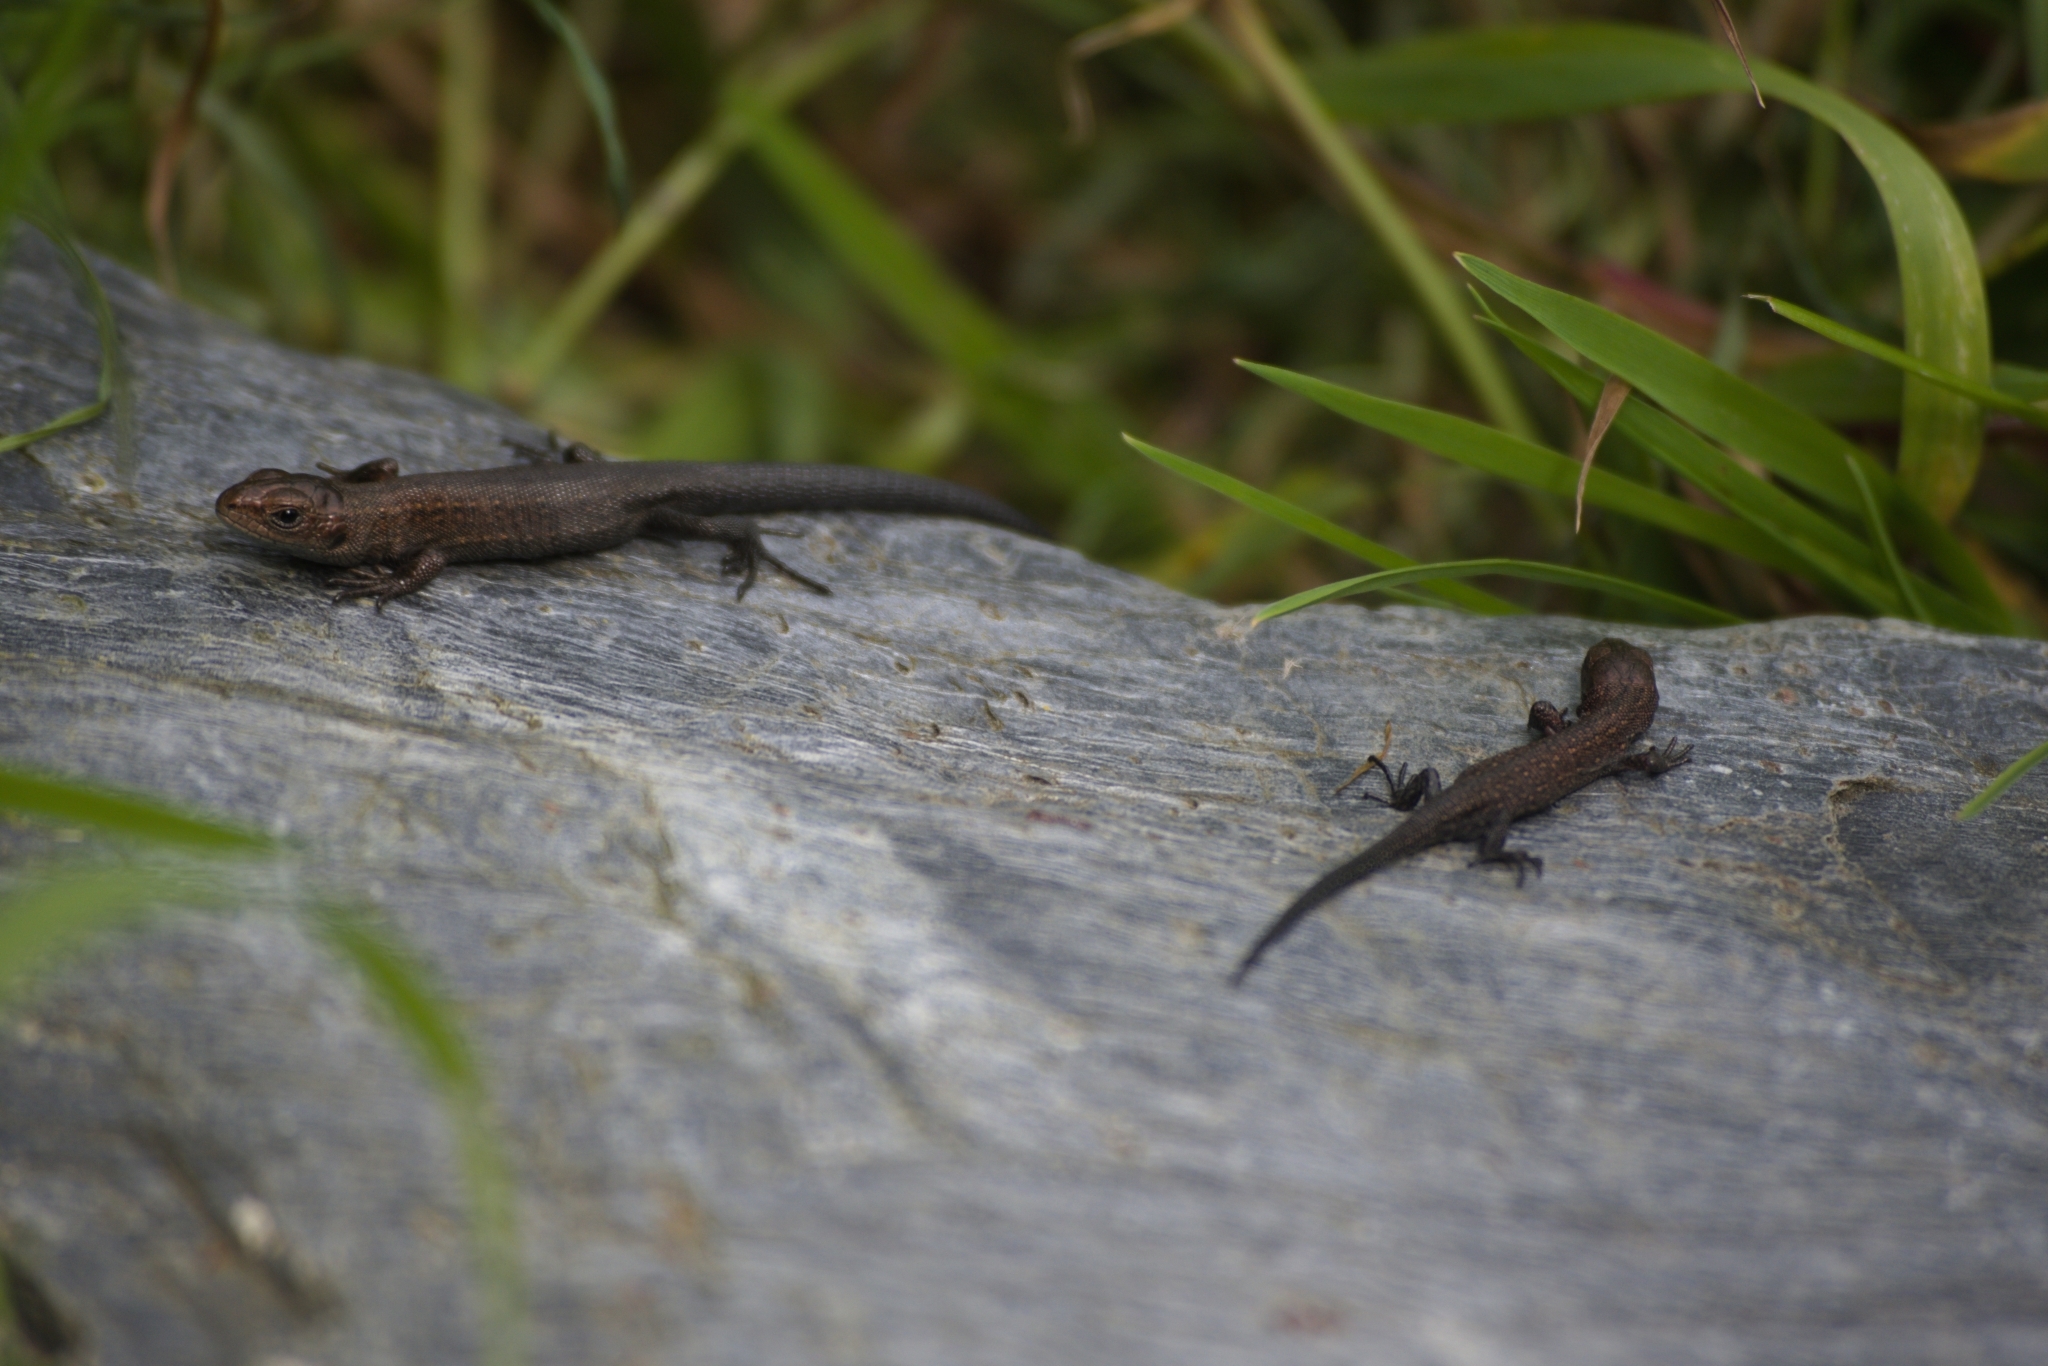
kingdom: Animalia
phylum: Chordata
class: Squamata
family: Lacertidae
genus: Zootoca
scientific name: Zootoca vivipara
